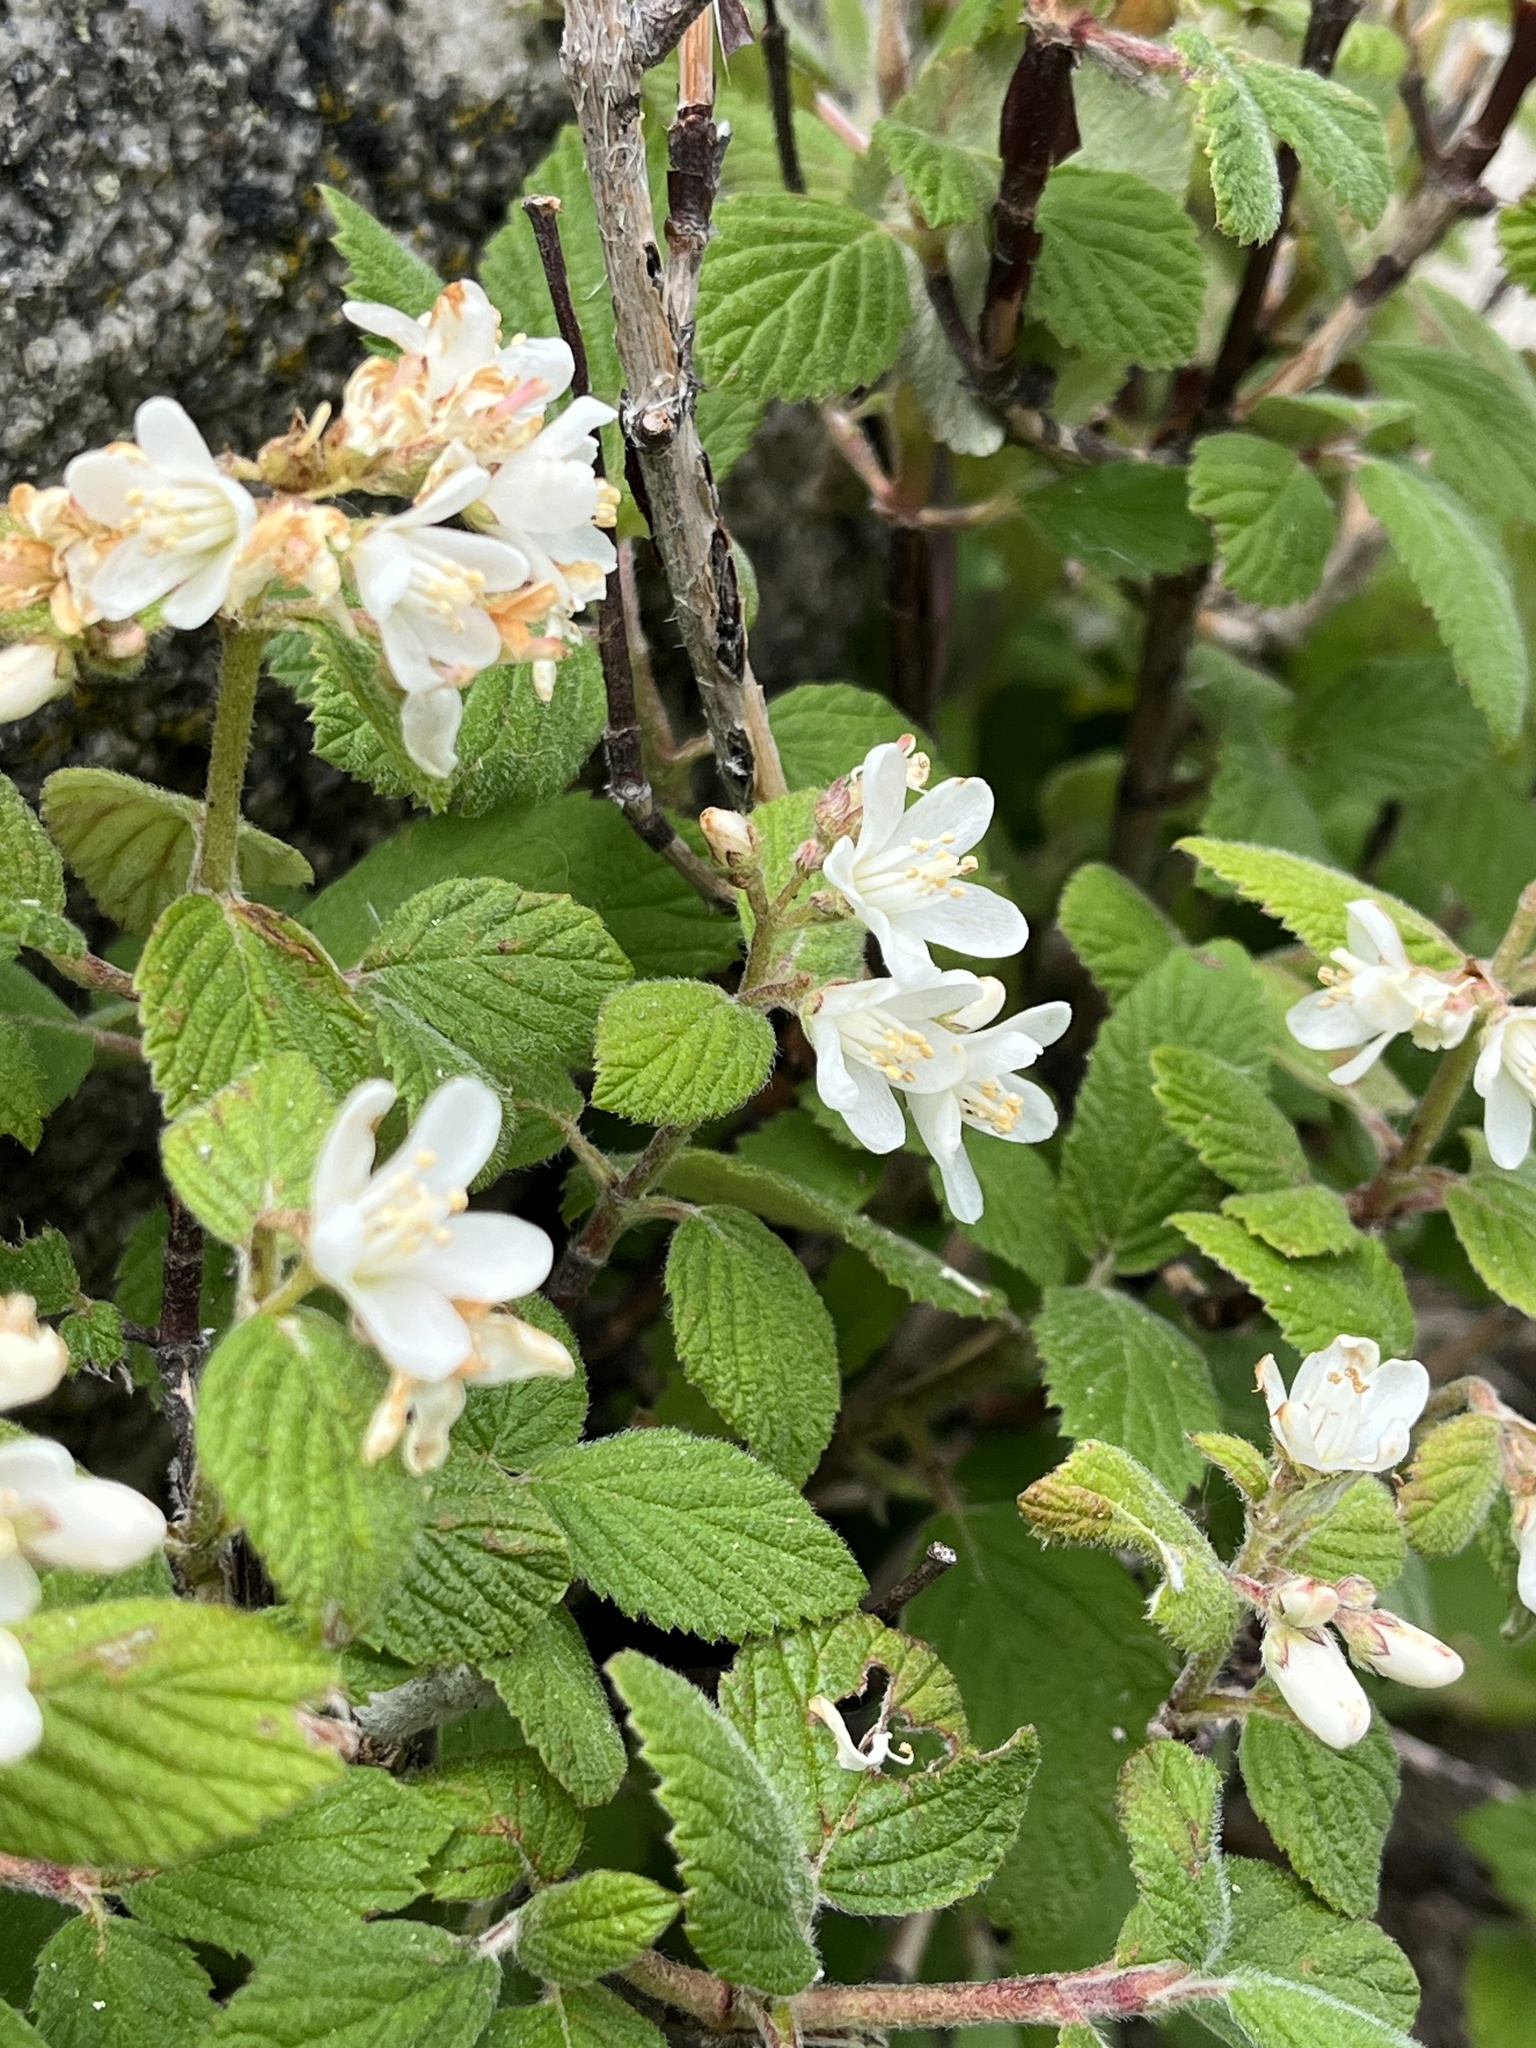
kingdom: Plantae
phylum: Tracheophyta
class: Magnoliopsida
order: Cornales
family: Hydrangeaceae
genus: Jamesia
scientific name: Jamesia americana
